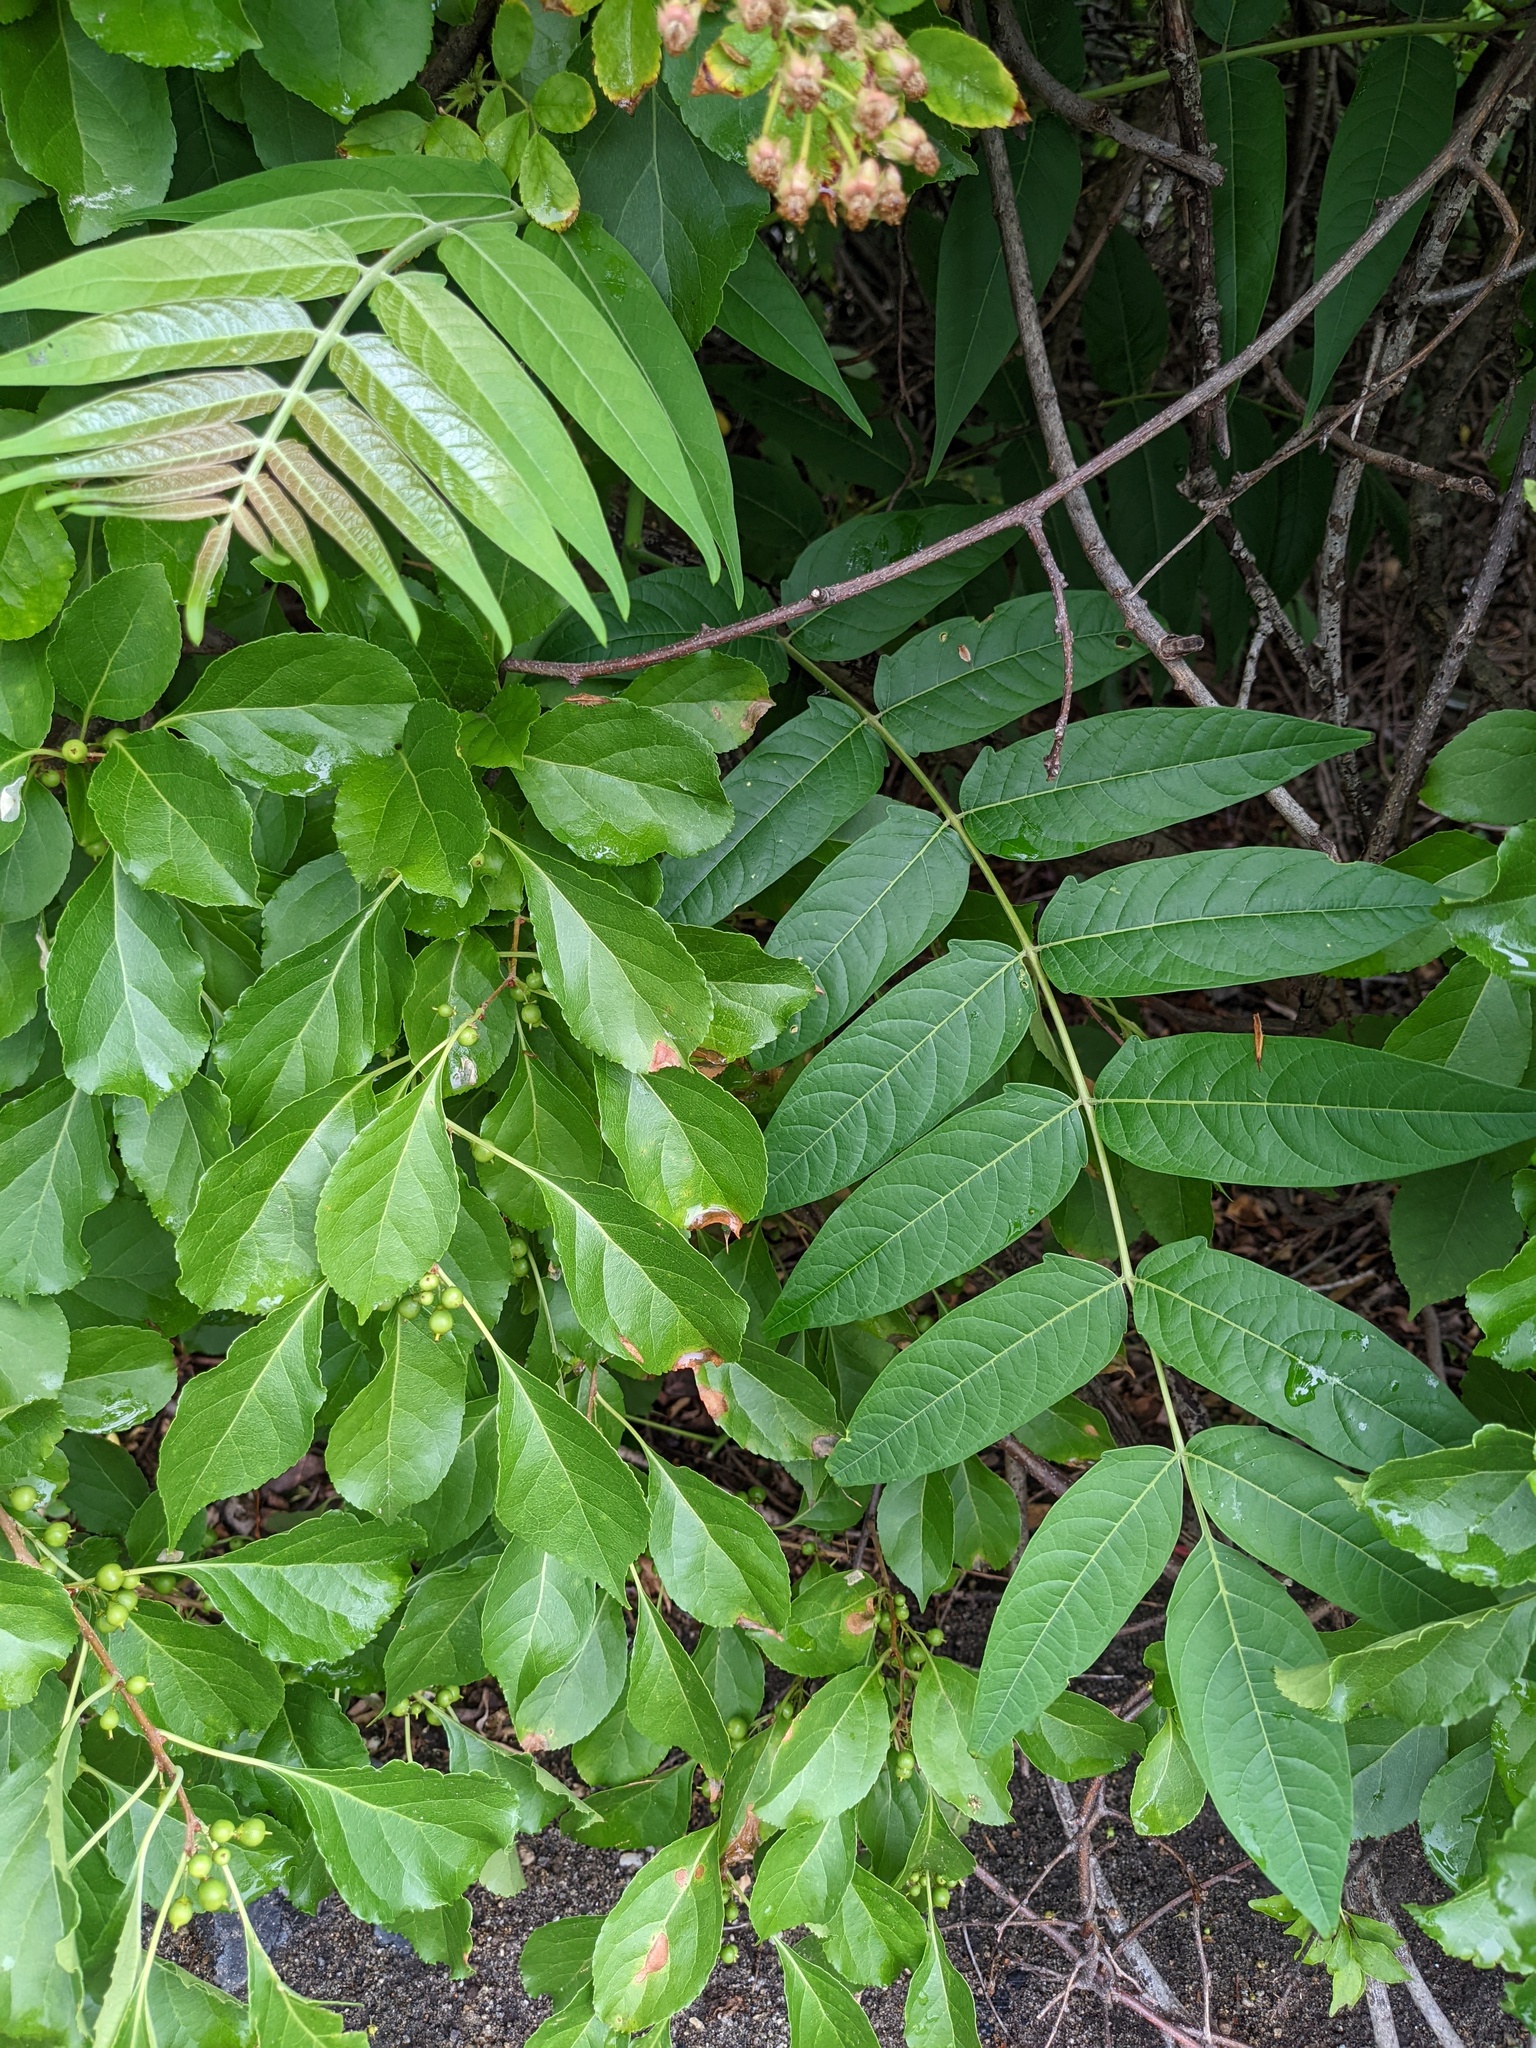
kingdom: Plantae
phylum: Tracheophyta
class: Magnoliopsida
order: Sapindales
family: Simaroubaceae
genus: Ailanthus
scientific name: Ailanthus altissima
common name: Tree-of-heaven
